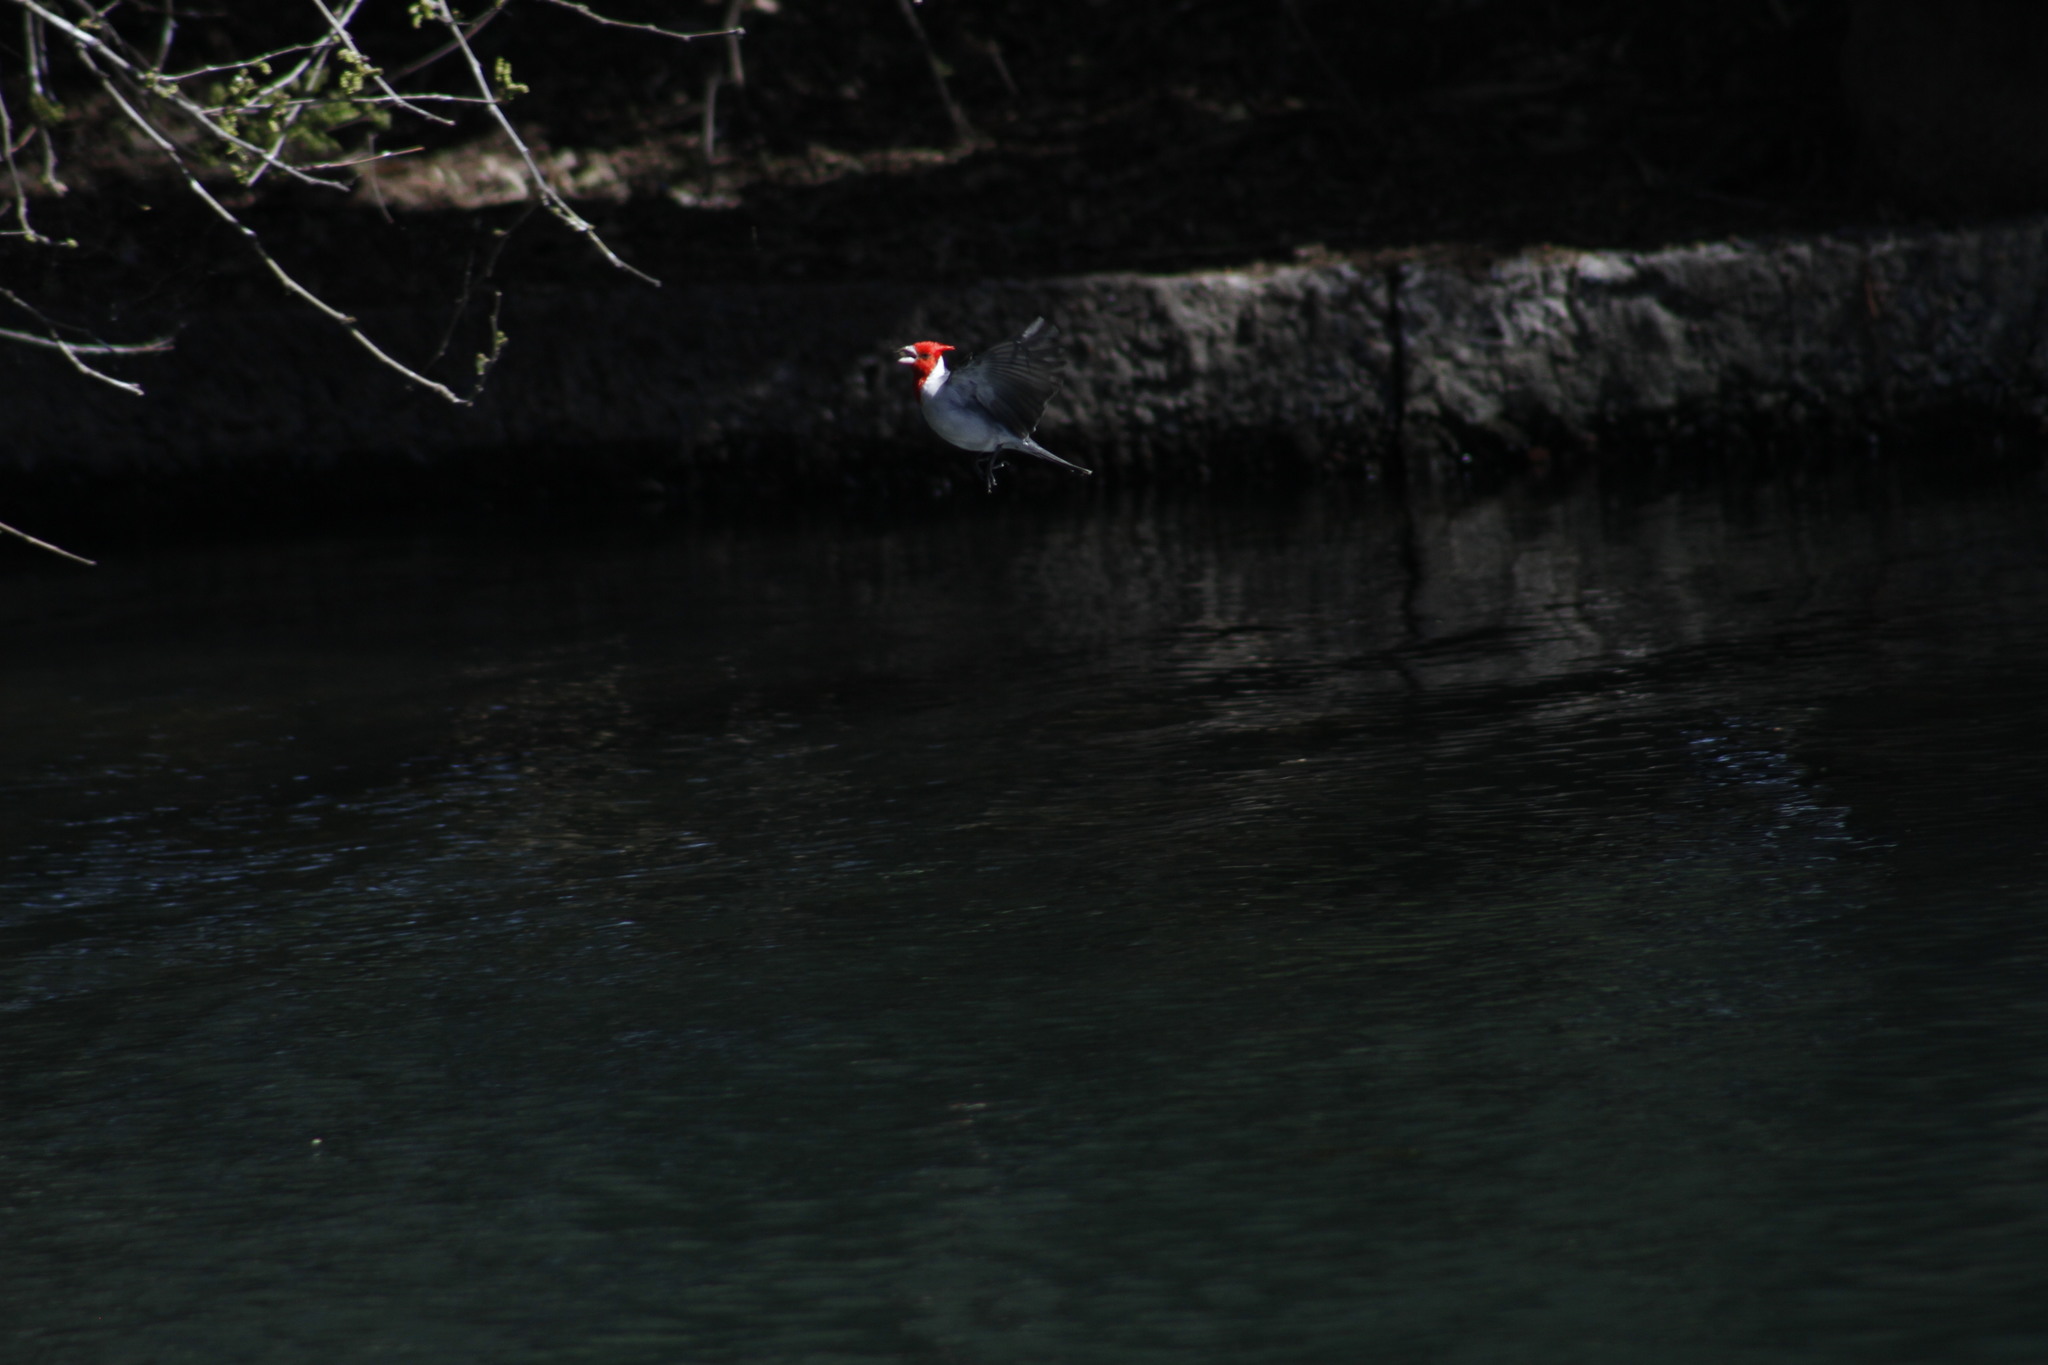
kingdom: Animalia
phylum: Chordata
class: Aves
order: Passeriformes
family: Thraupidae
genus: Paroaria
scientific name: Paroaria coronata
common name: Red-crested cardinal
